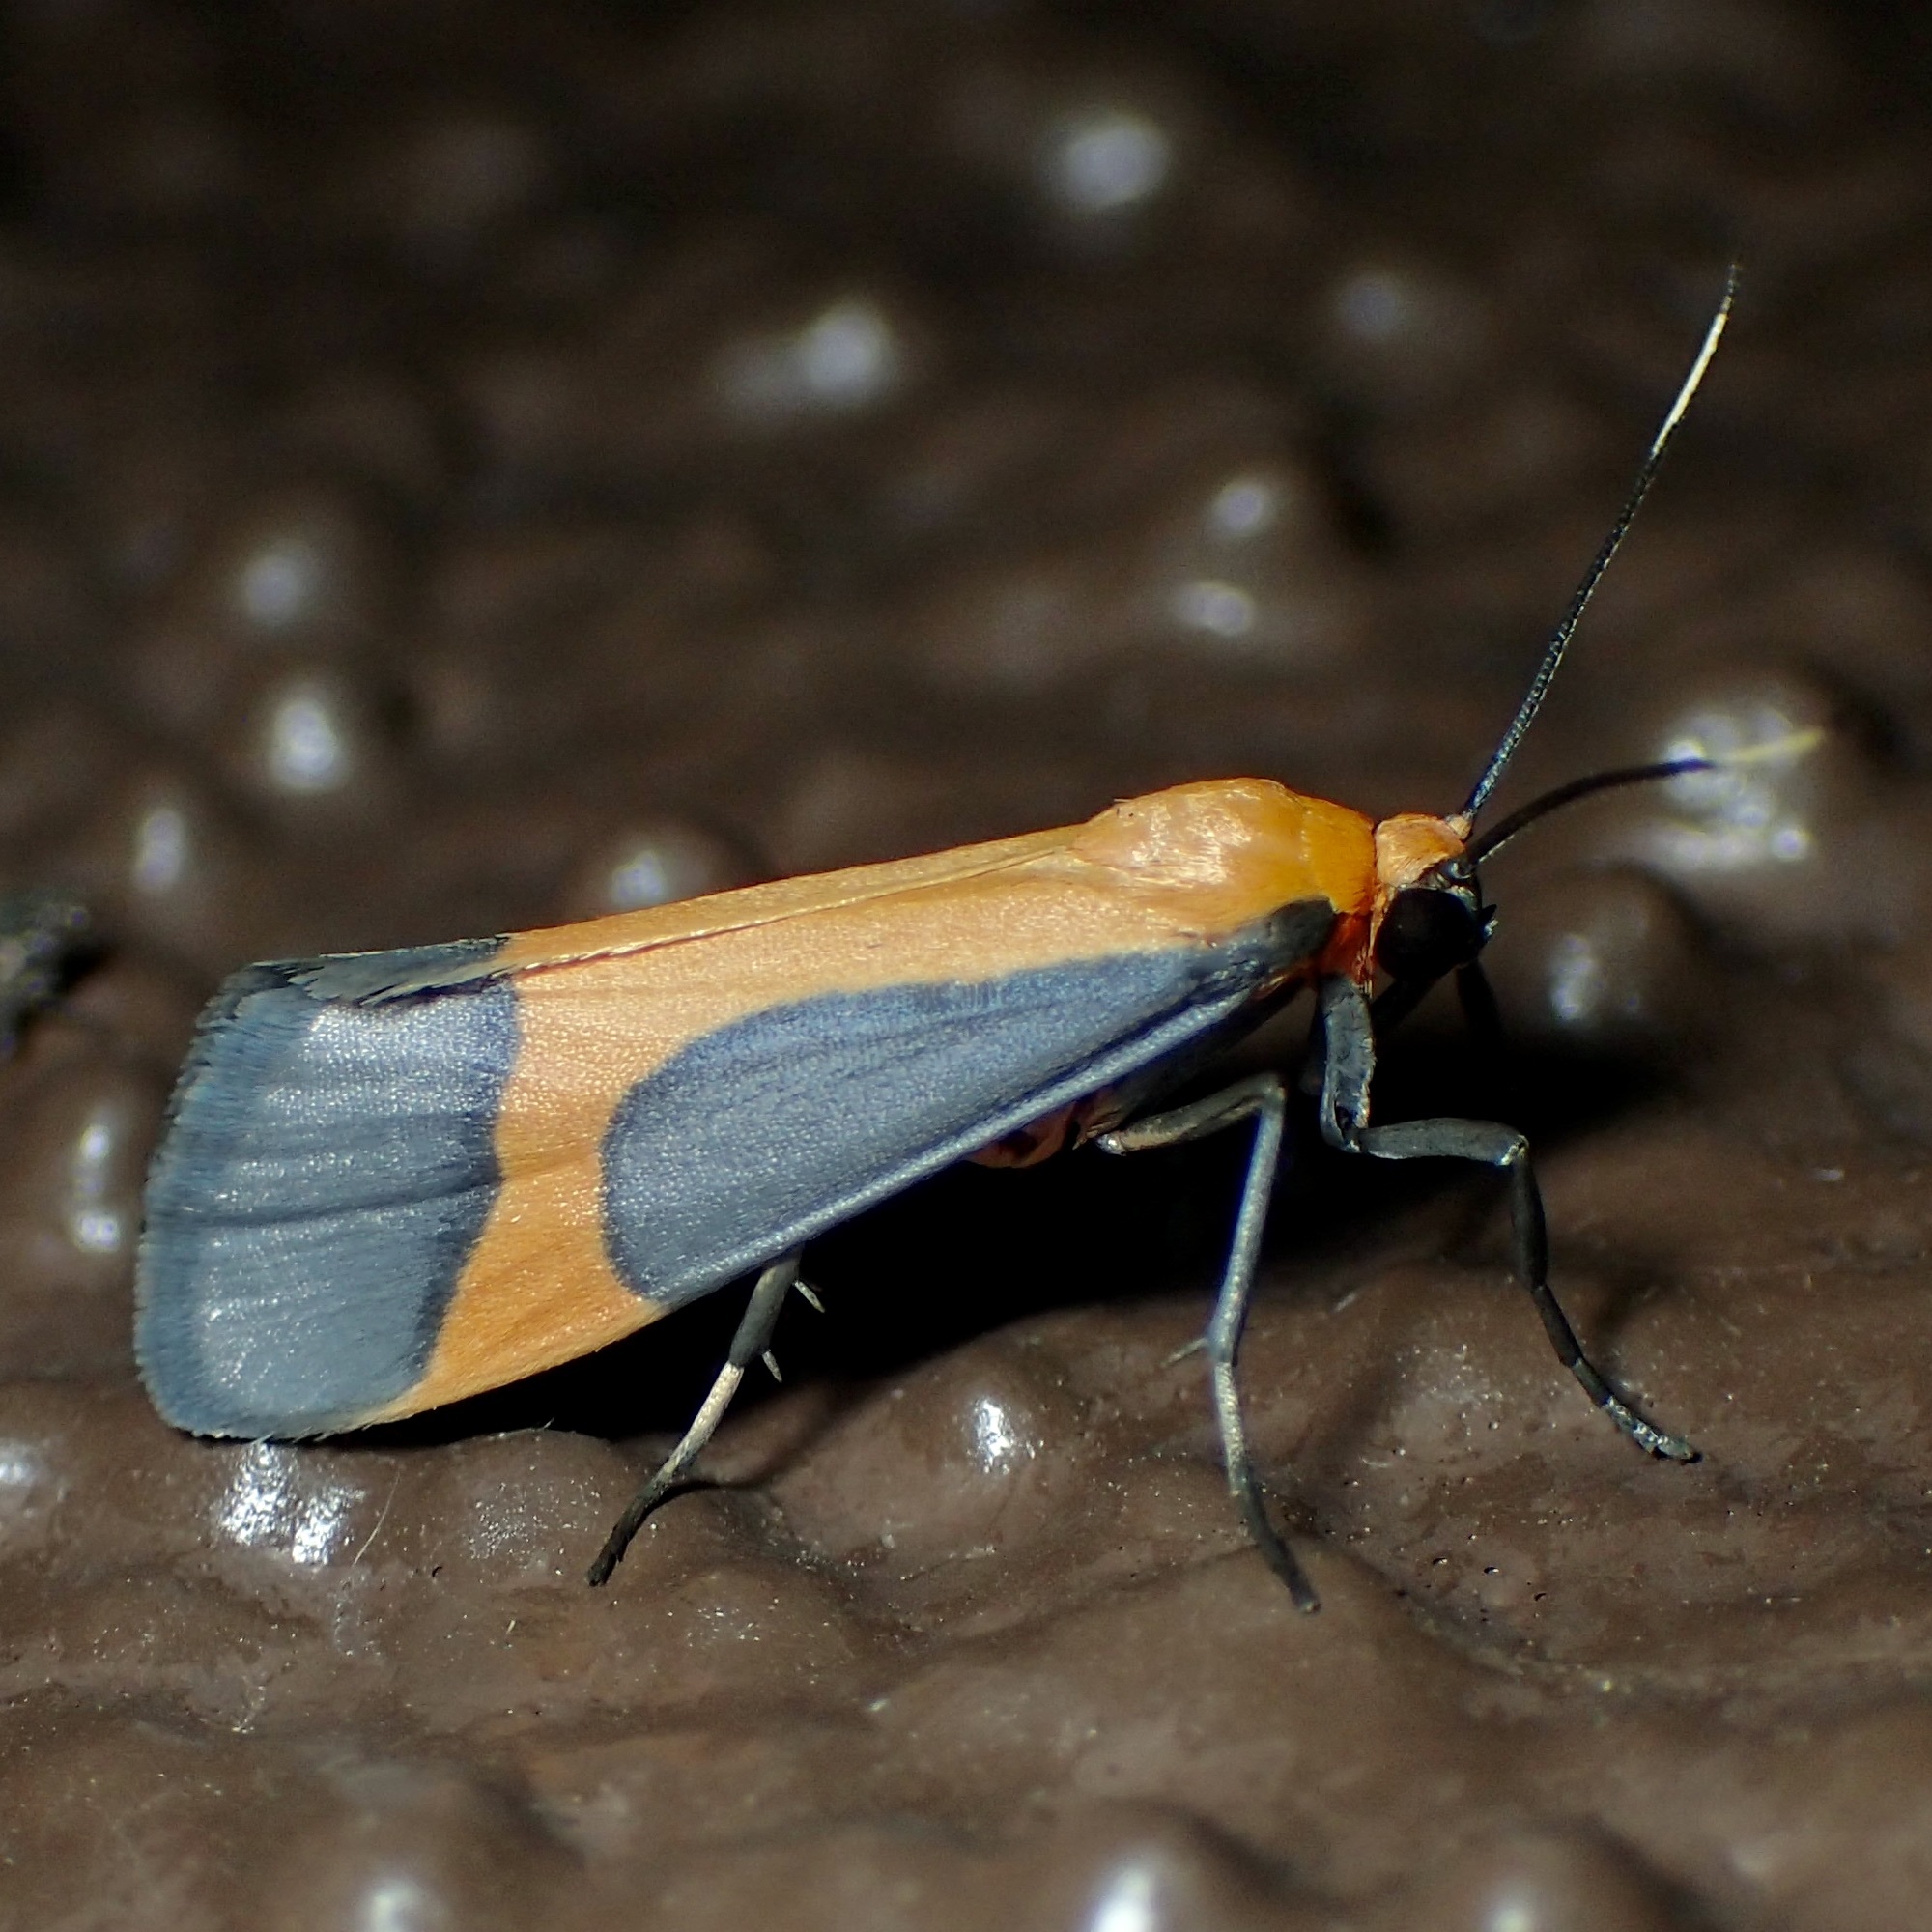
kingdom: Animalia
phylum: Arthropoda
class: Insecta
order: Lepidoptera
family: Erebidae
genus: Cisthene
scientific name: Cisthene angelus
